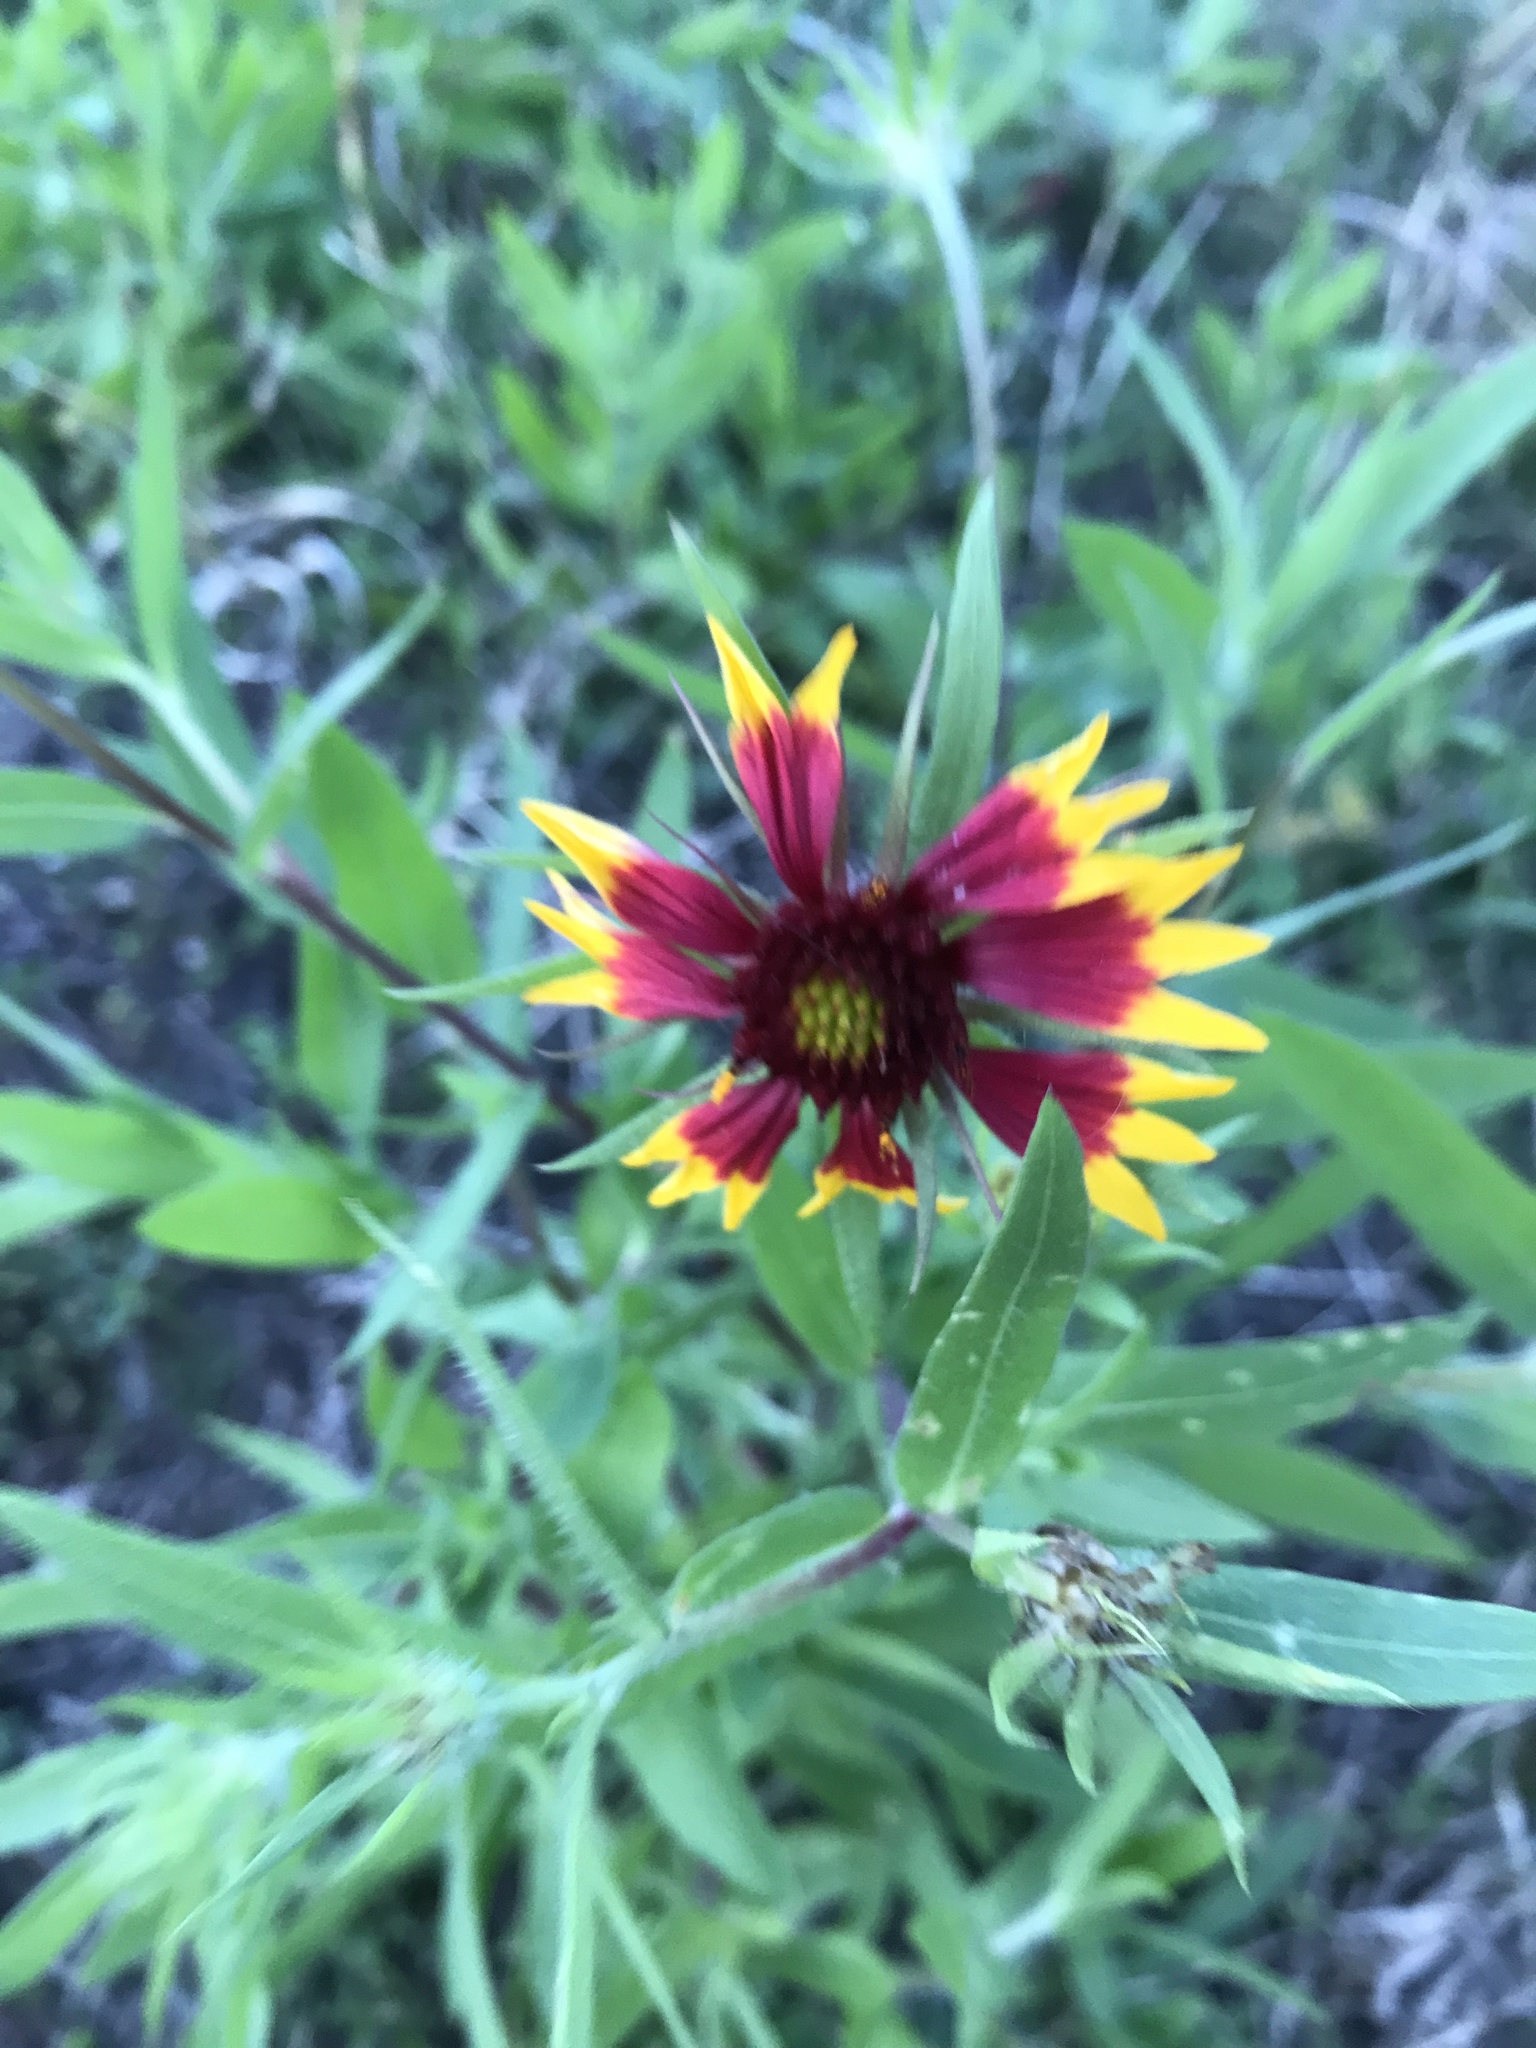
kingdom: Plantae
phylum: Tracheophyta
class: Magnoliopsida
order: Asterales
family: Asteraceae
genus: Gaillardia
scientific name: Gaillardia pulchella
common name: Firewheel
